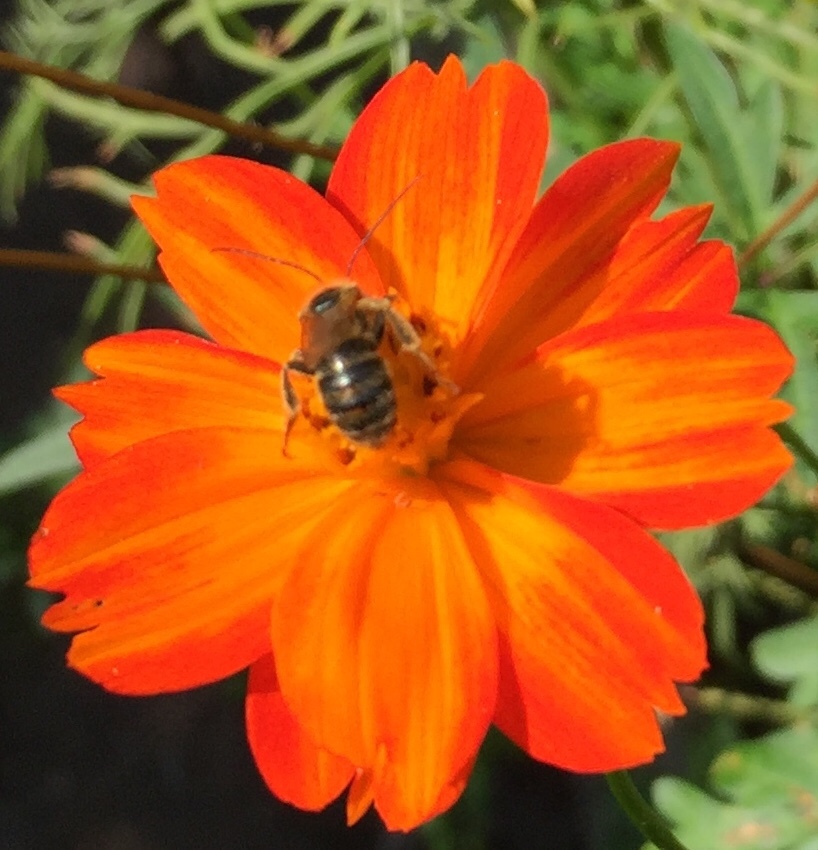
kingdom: Animalia
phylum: Arthropoda
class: Insecta
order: Hymenoptera
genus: Eumelissodes
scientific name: Eumelissodes
